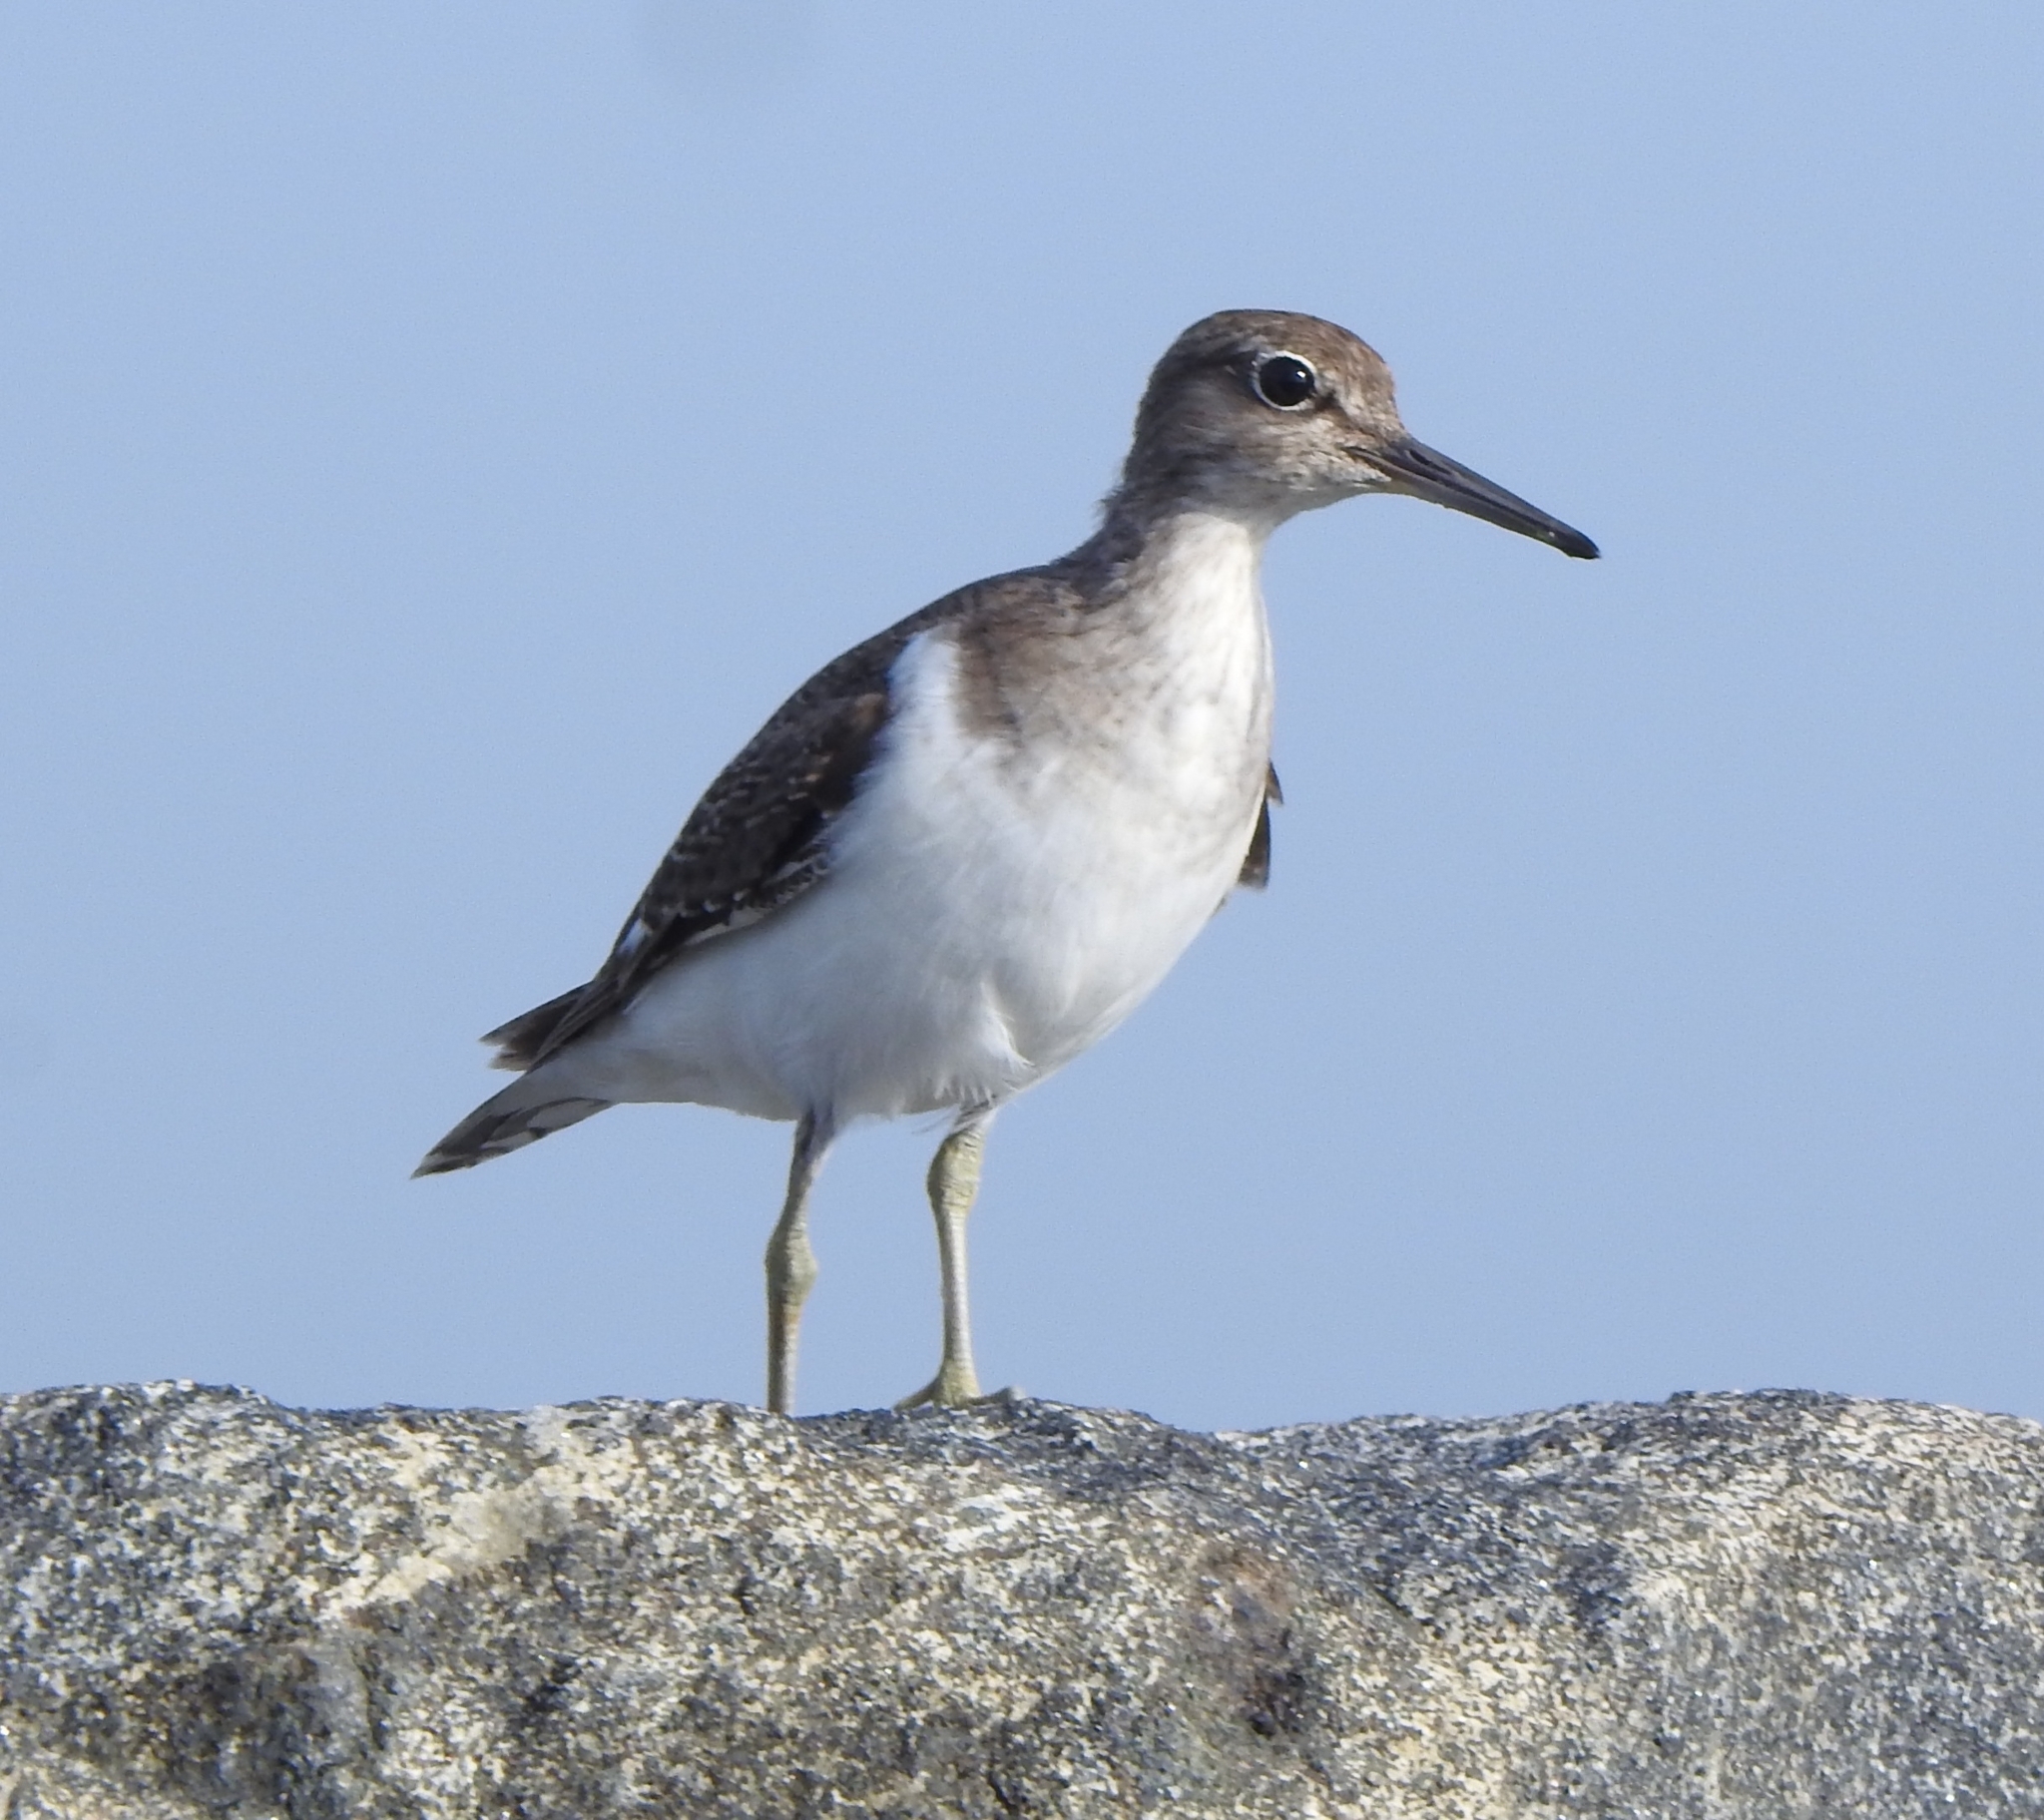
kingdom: Animalia
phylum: Chordata
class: Aves
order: Charadriiformes
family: Scolopacidae
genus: Actitis
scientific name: Actitis hypoleucos
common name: Common sandpiper
